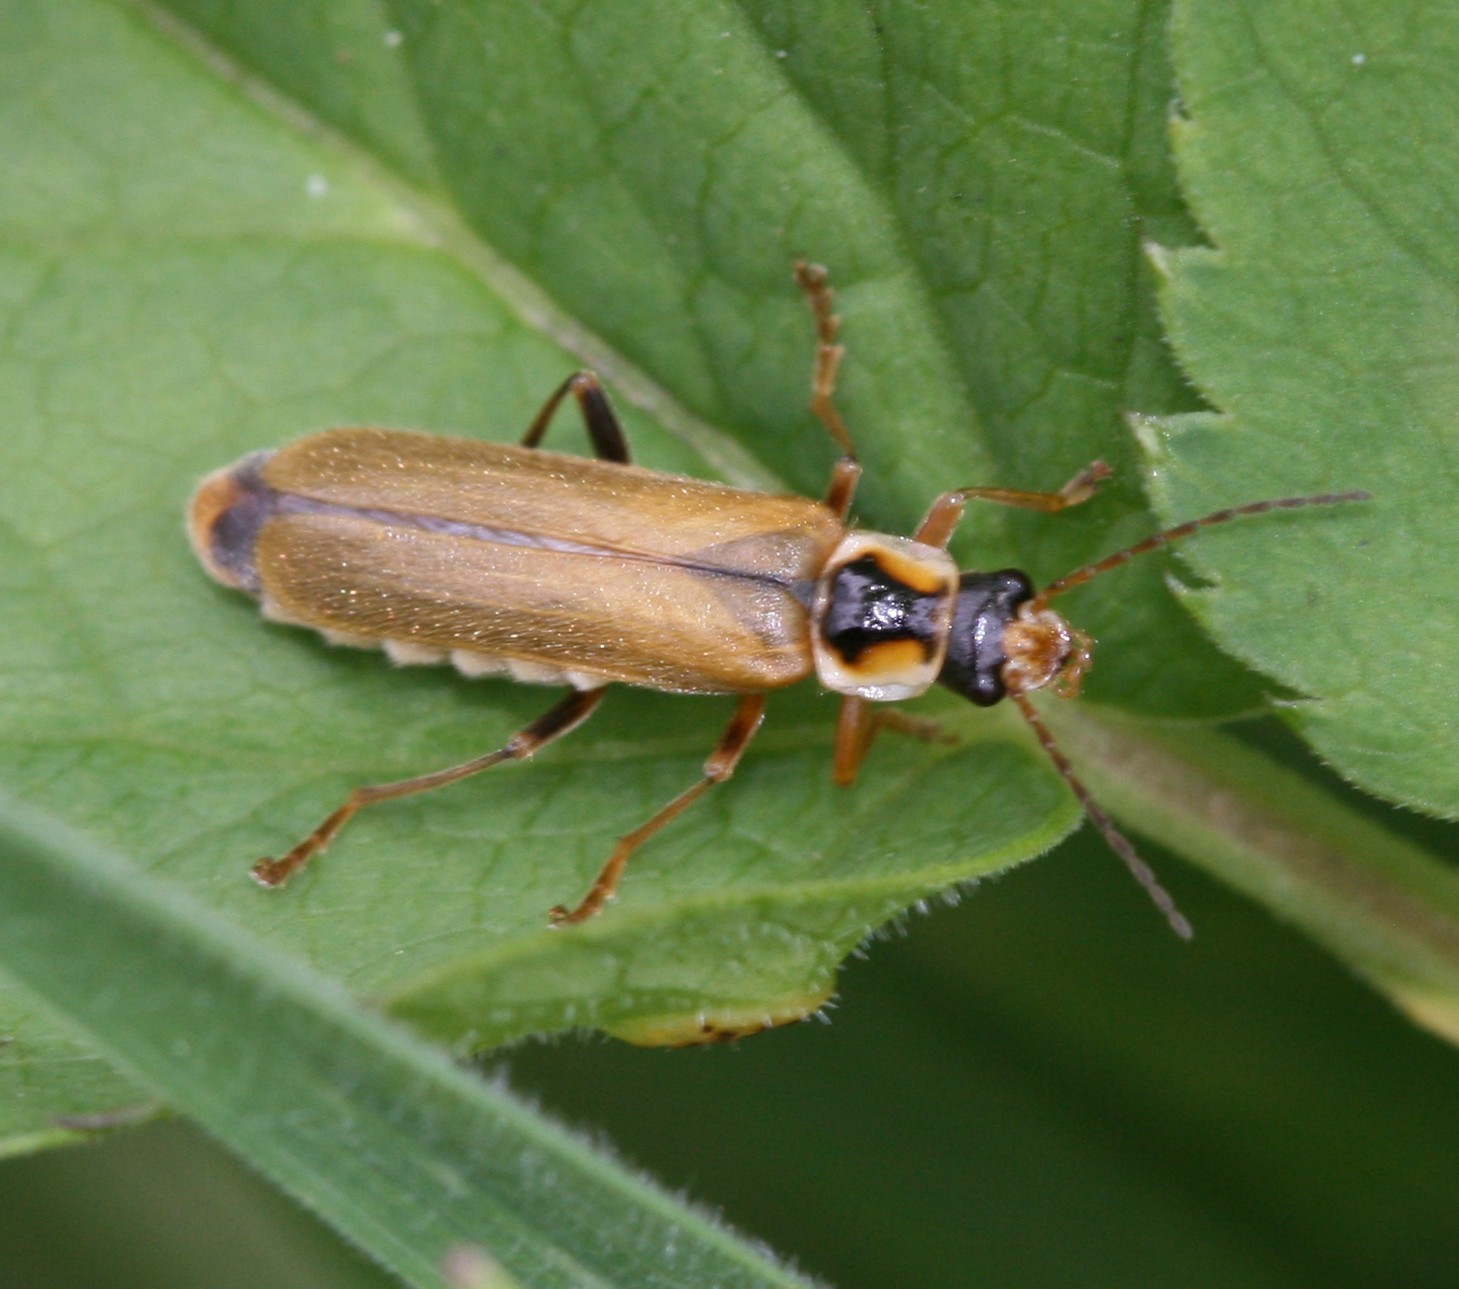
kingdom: Animalia
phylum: Arthropoda
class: Insecta
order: Coleoptera
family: Cantharidae
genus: Cantharis
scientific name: Cantharis decipiens
